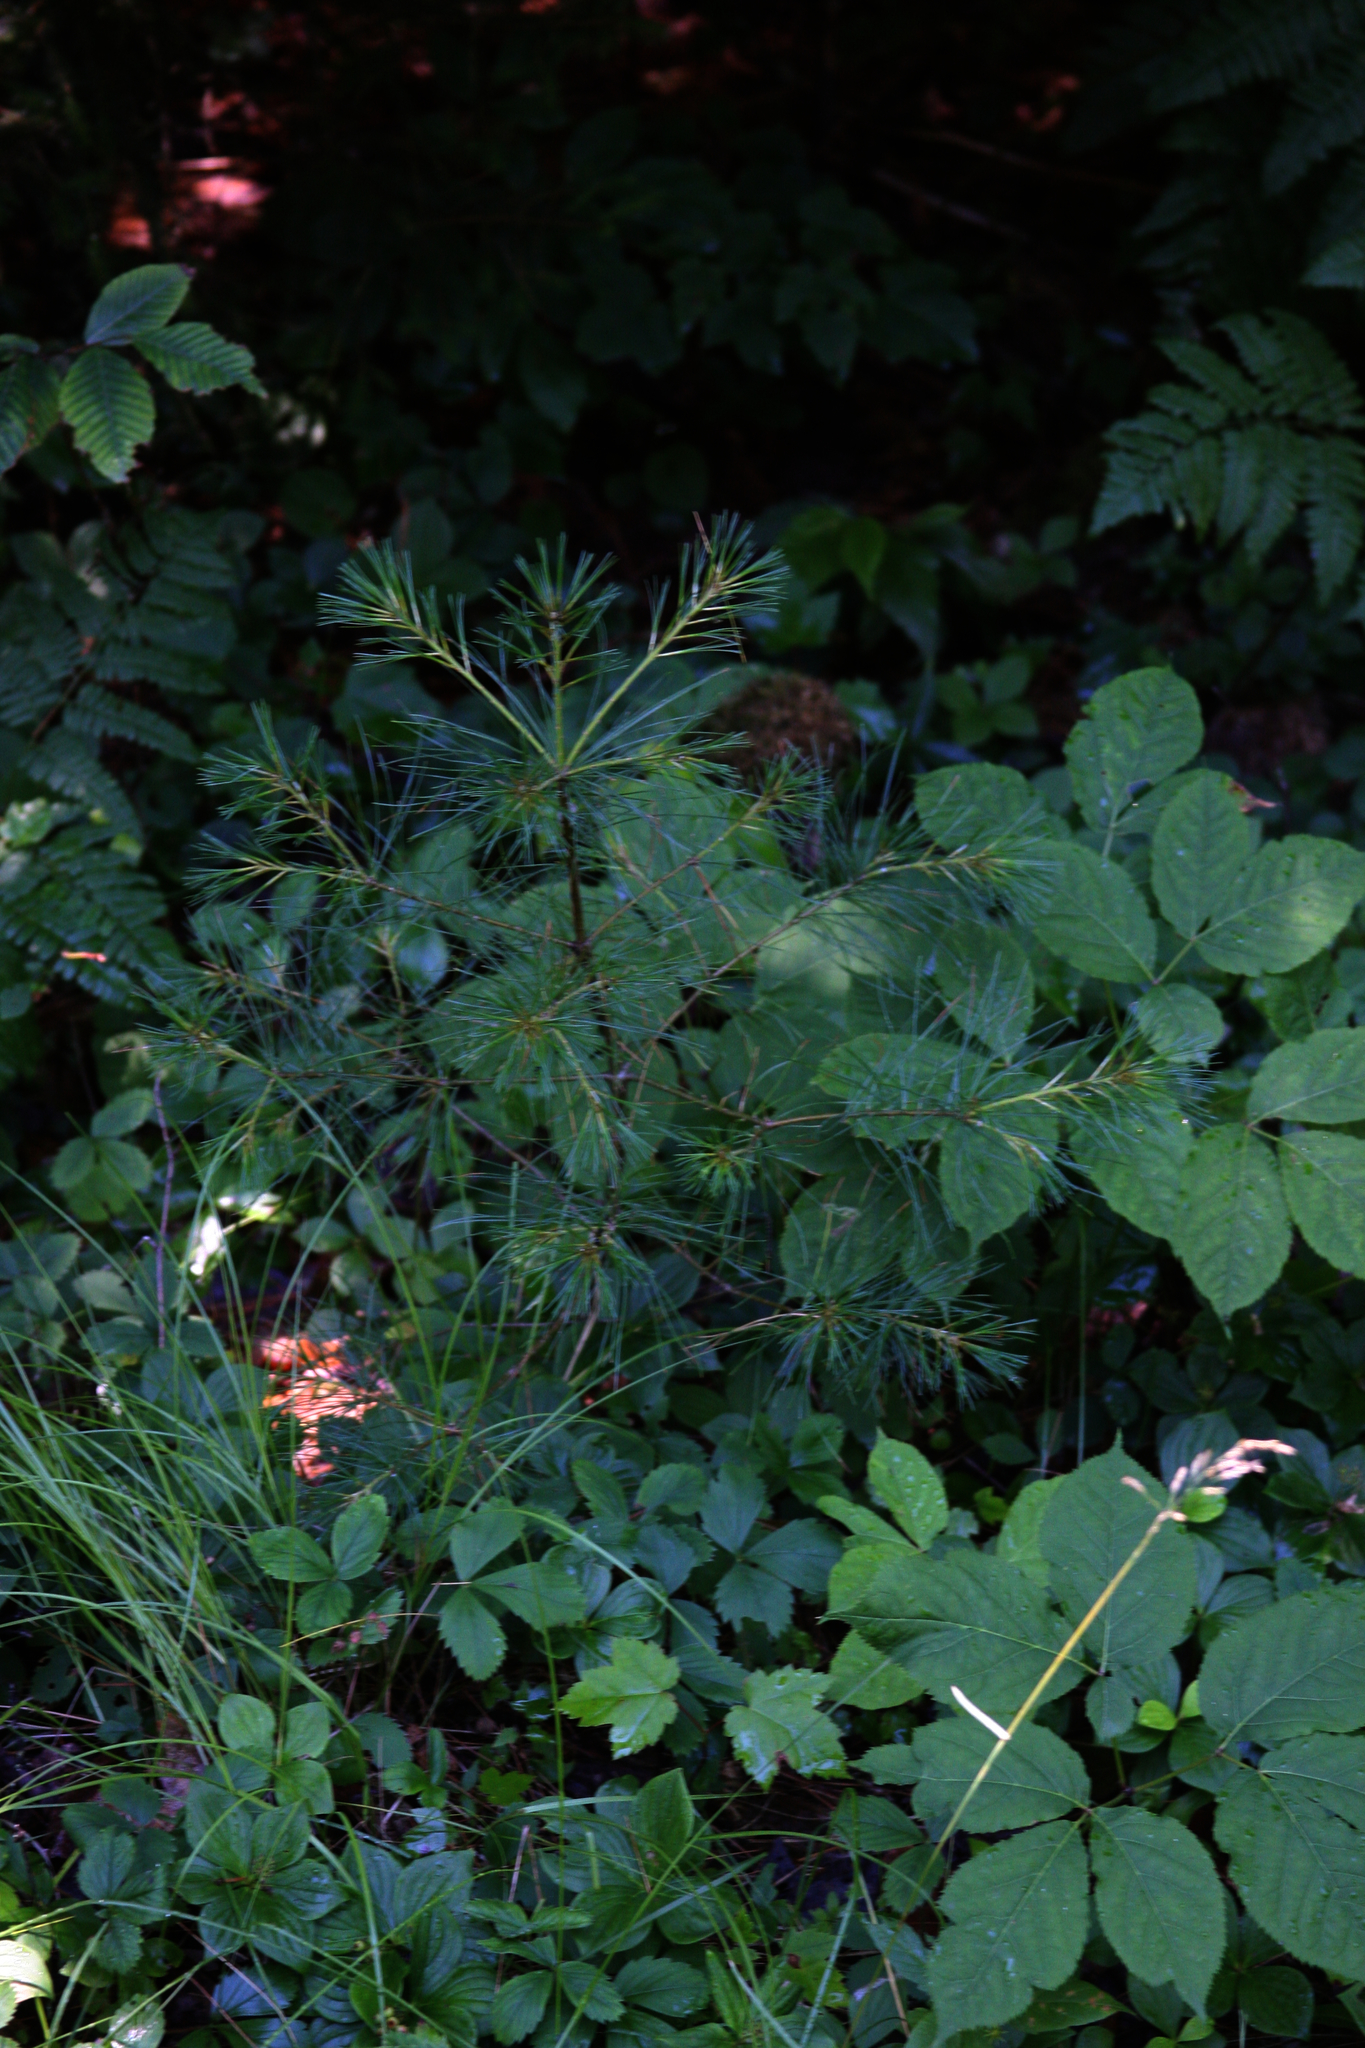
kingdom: Plantae
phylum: Tracheophyta
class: Magnoliopsida
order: Cornales
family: Cornaceae
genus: Cornus
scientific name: Cornus canadensis
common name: Creeping dogwood
